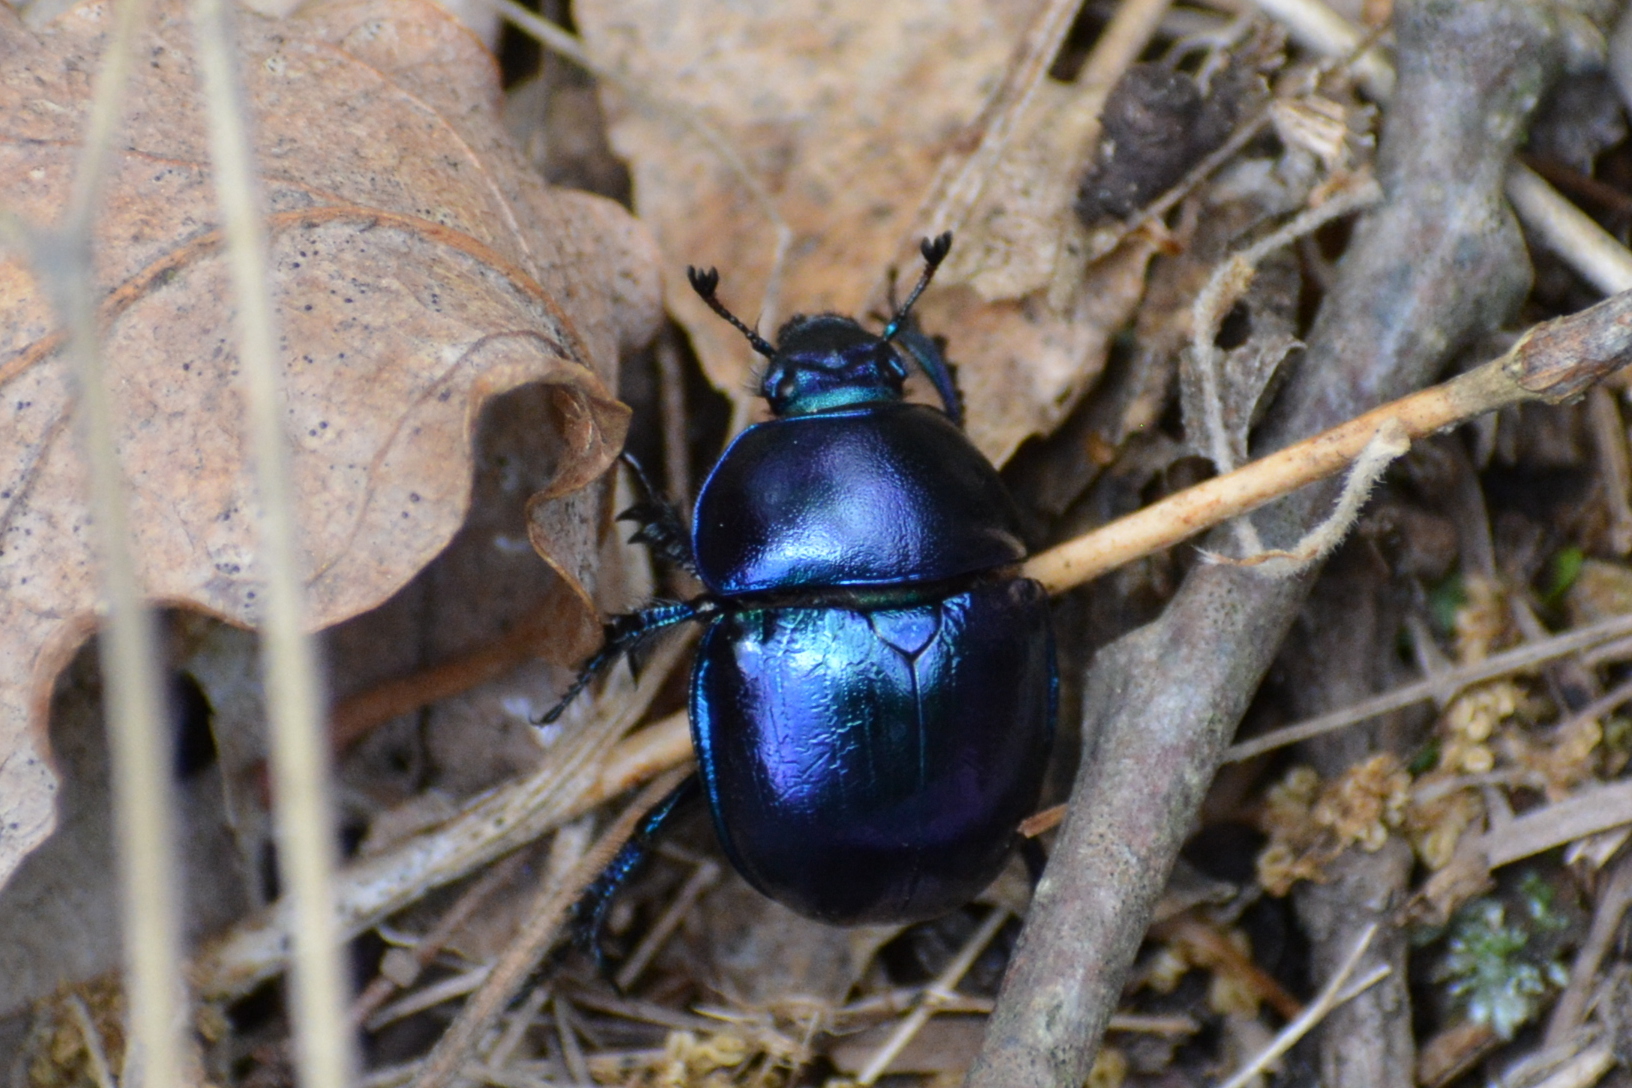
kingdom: Animalia
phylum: Arthropoda
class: Insecta
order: Coleoptera
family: Geotrupidae
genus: Trypocopris
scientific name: Trypocopris vernalis
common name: Spring dumbledor
